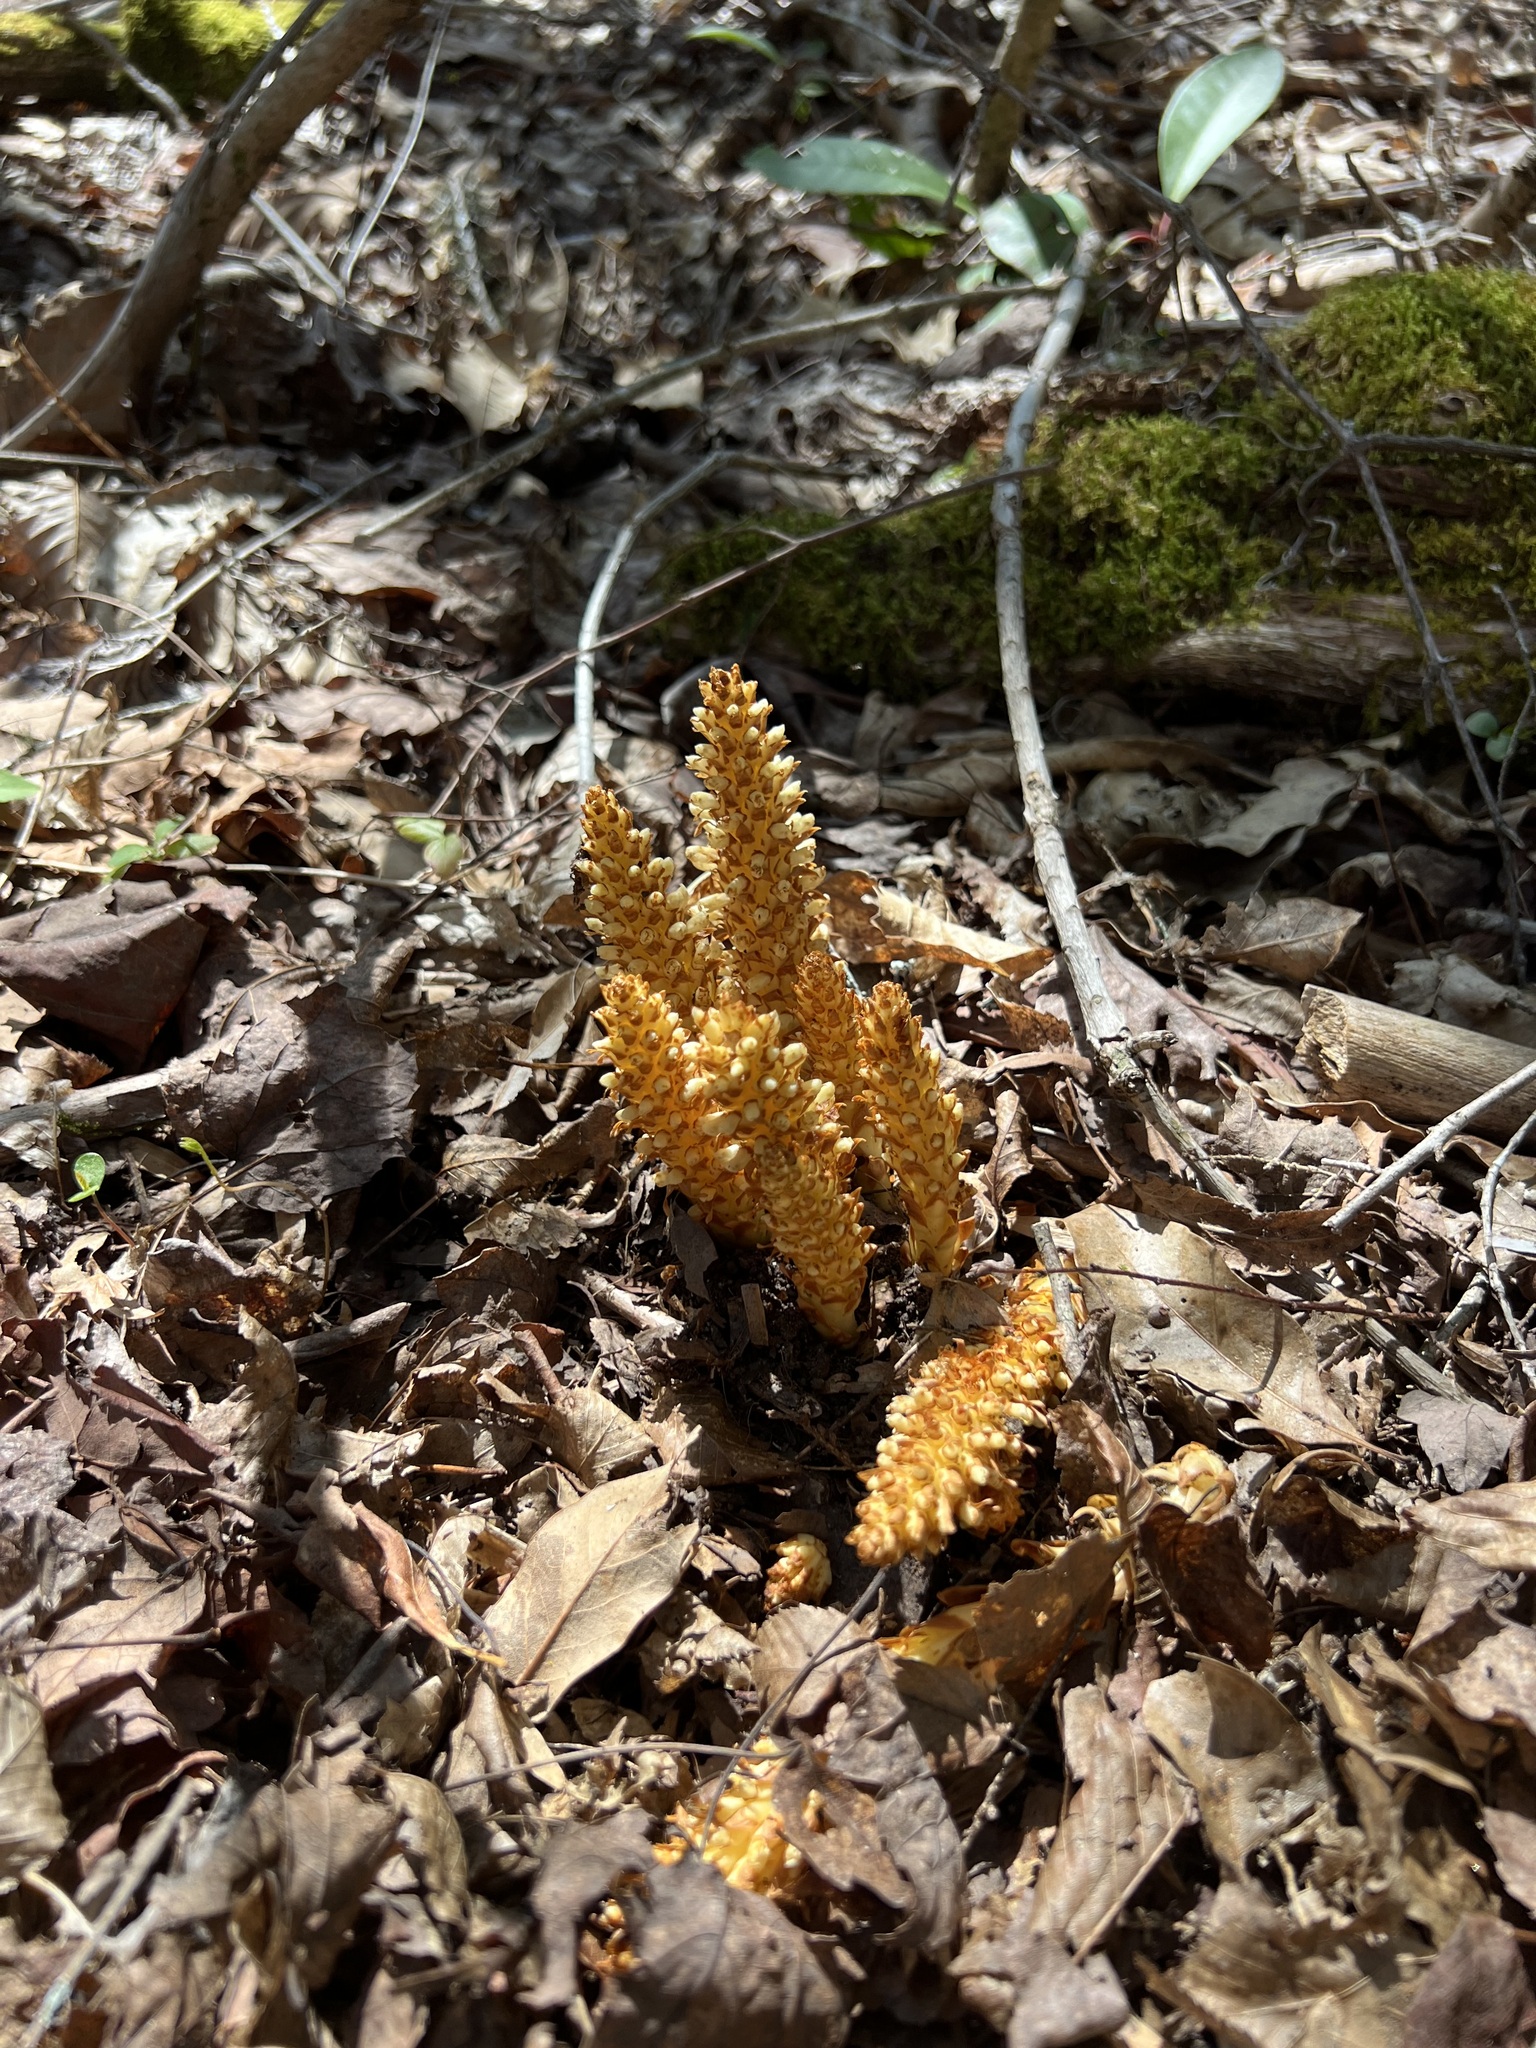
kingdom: Plantae
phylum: Tracheophyta
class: Magnoliopsida
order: Lamiales
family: Orobanchaceae
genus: Conopholis
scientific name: Conopholis americana
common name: American cancer-root
